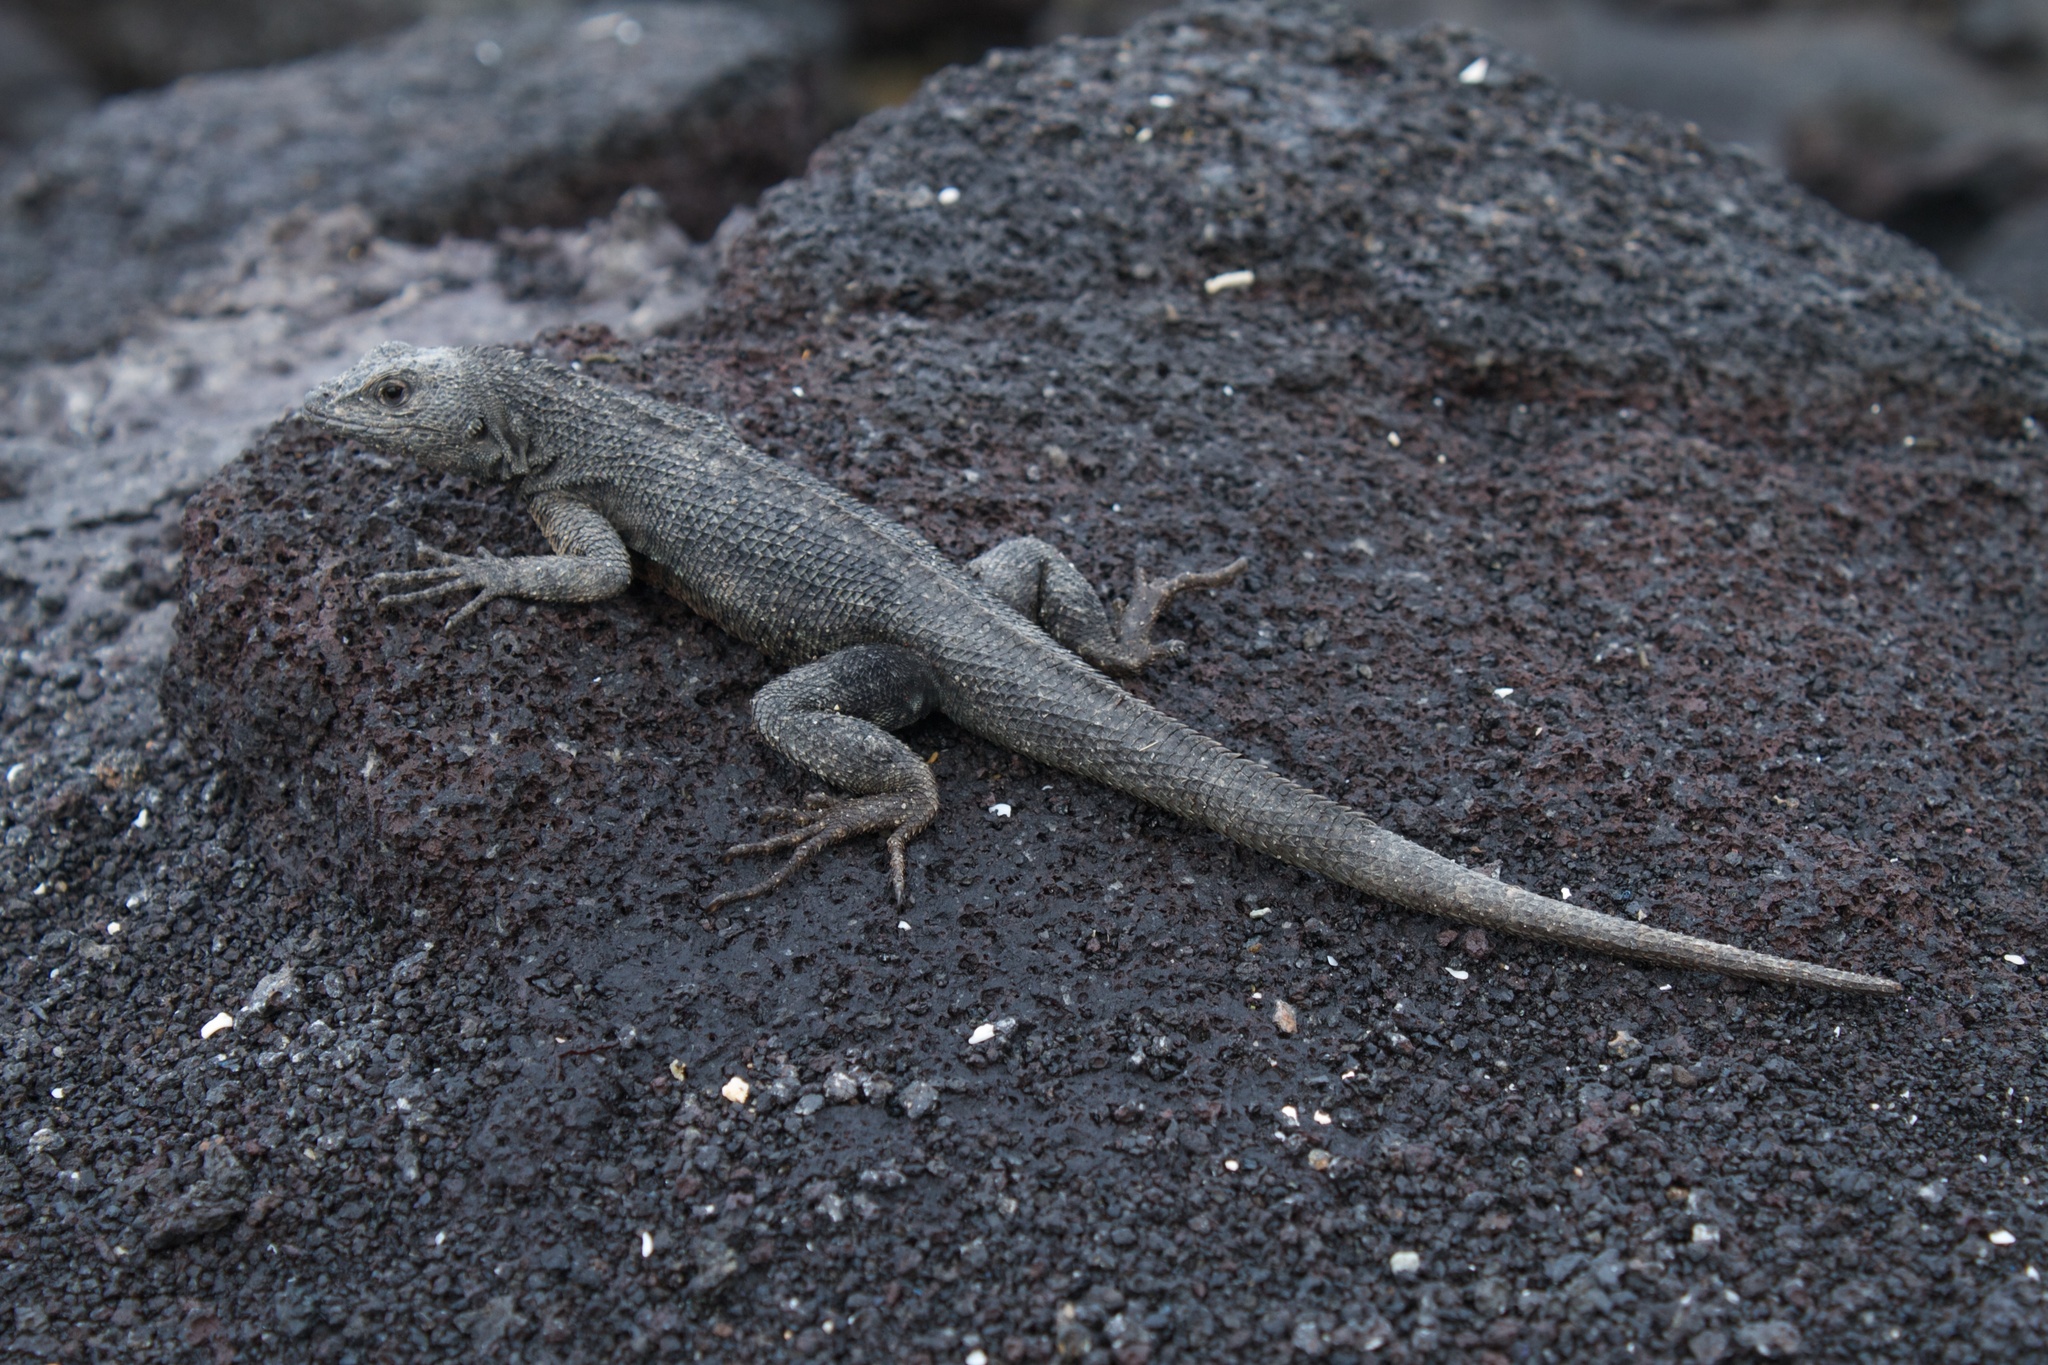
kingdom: Animalia
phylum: Chordata
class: Squamata
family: Tropiduridae
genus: Microlophus
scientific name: Microlophus albemarlensis
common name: Galapagos lava lizard
